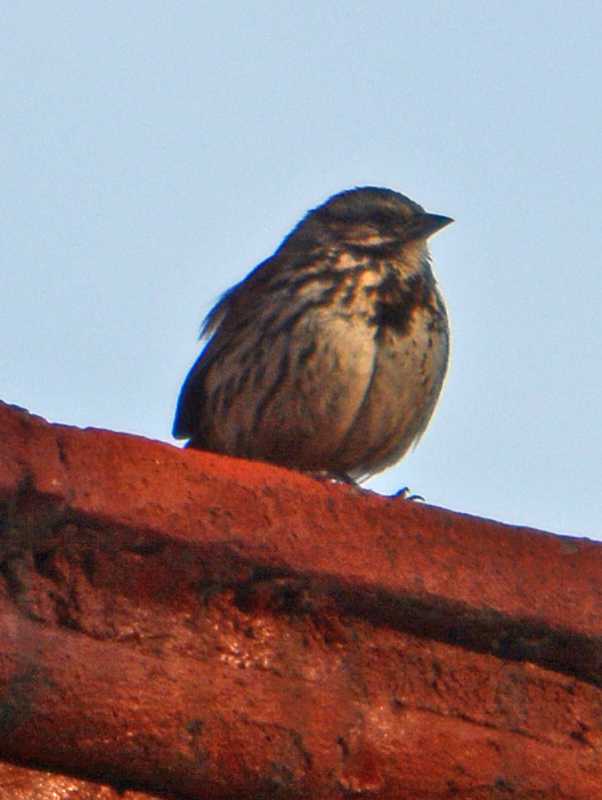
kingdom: Animalia
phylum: Chordata
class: Aves
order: Passeriformes
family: Passerellidae
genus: Melospiza
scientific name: Melospiza melodia
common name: Song sparrow
